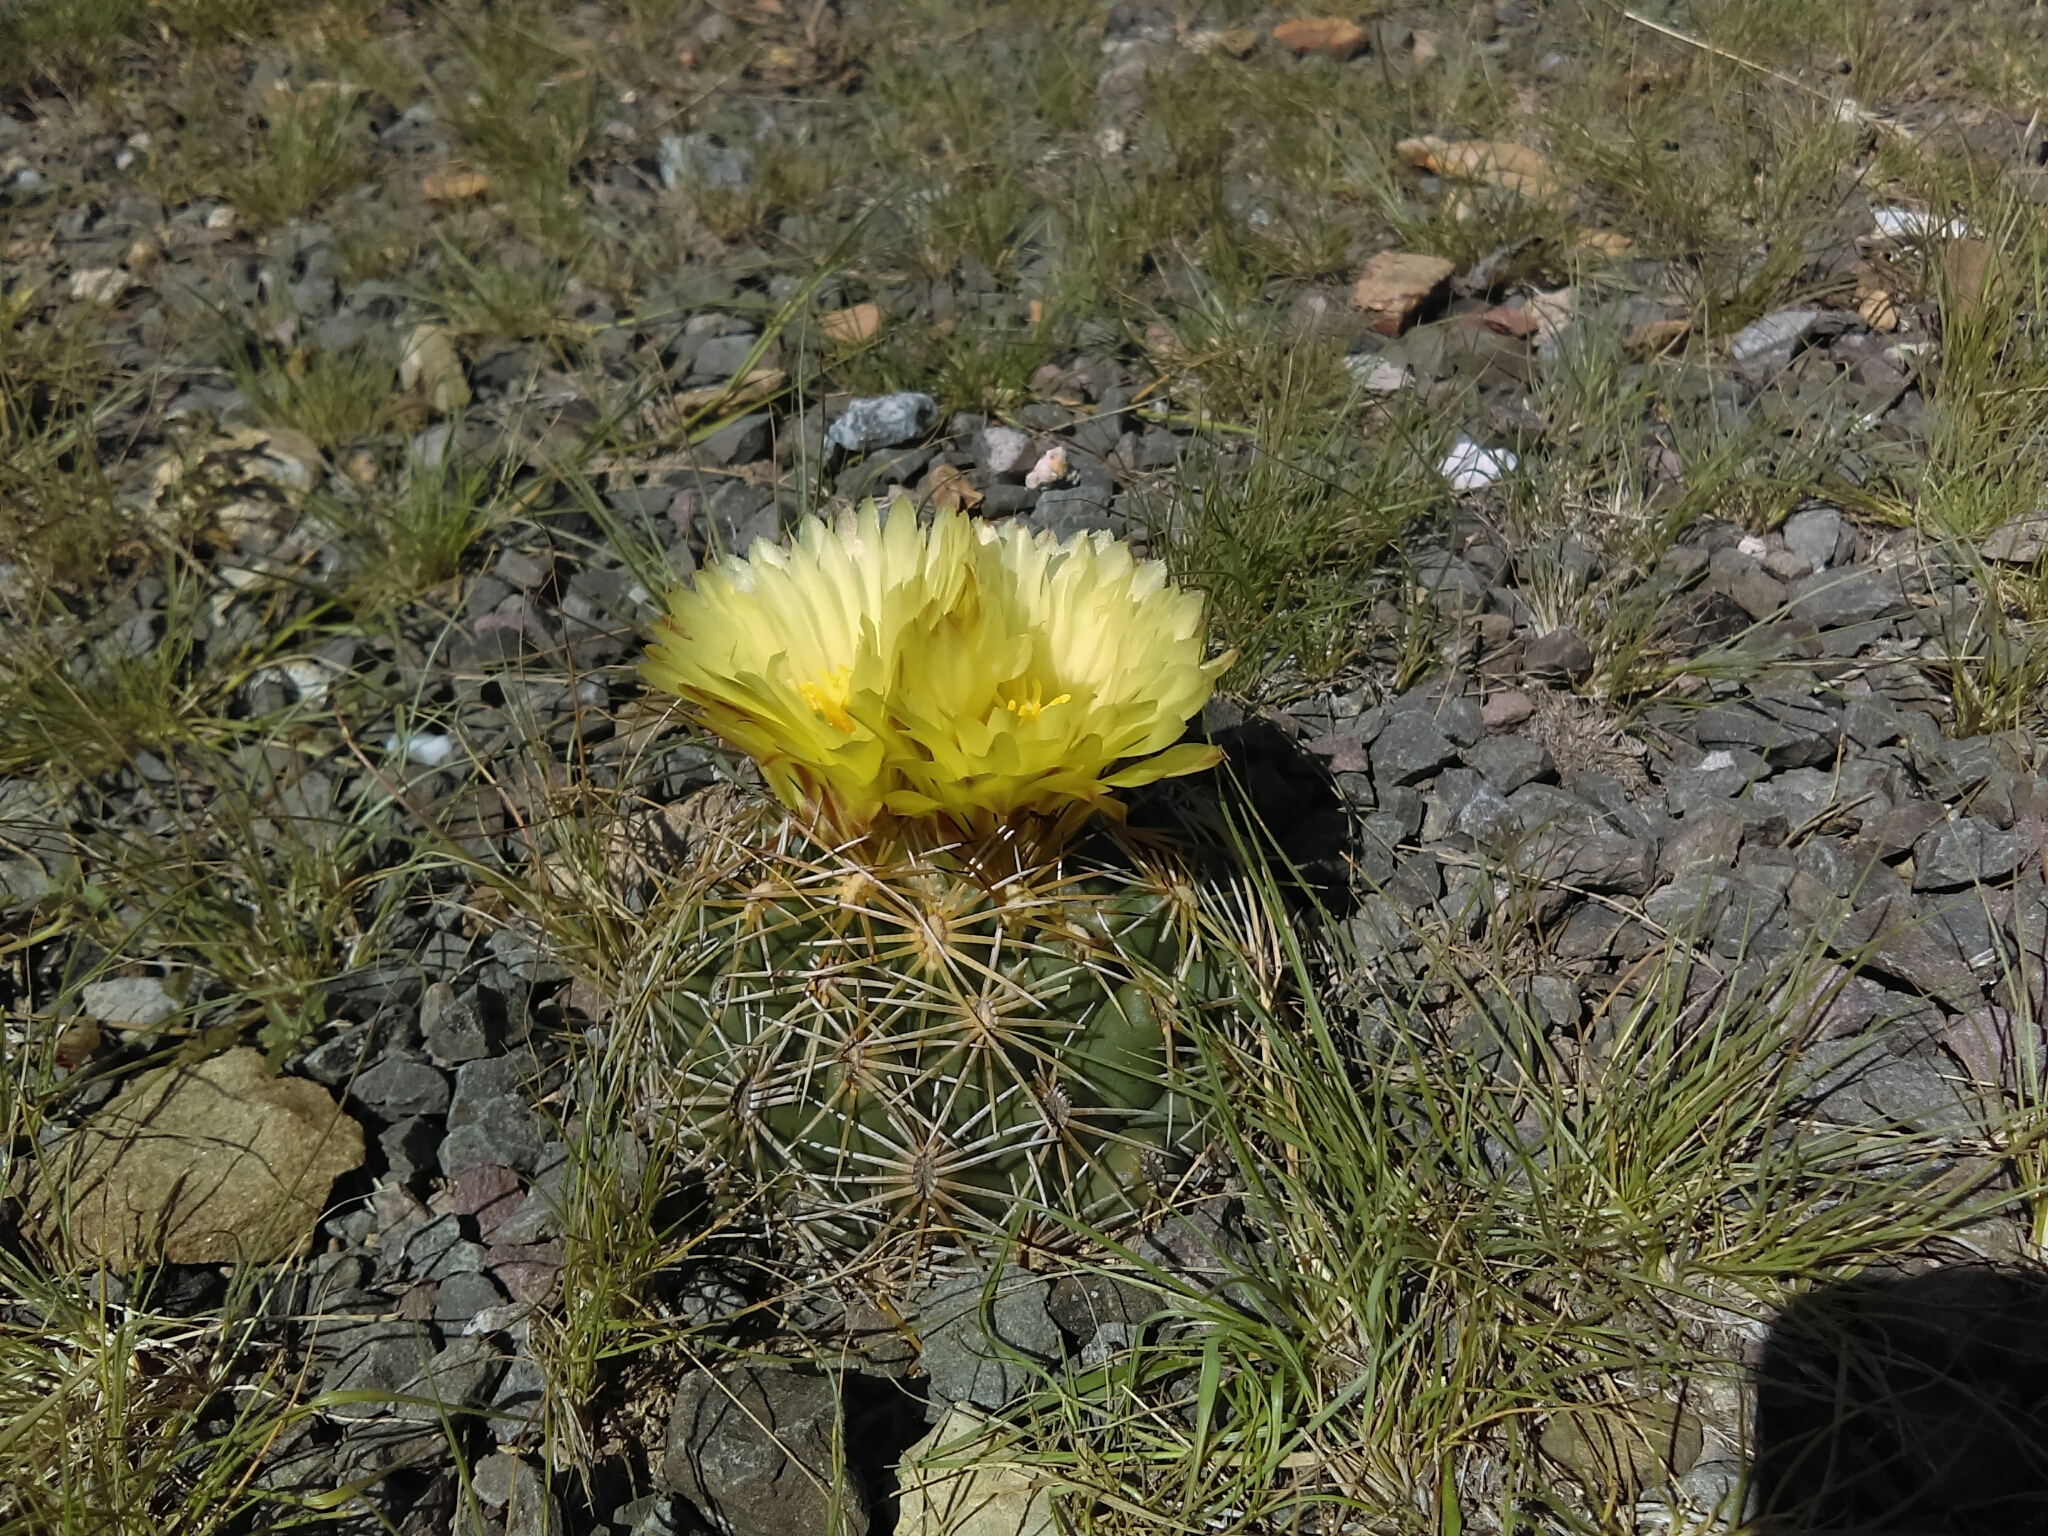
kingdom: Plantae
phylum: Tracheophyta
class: Magnoliopsida
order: Caryophyllales
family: Cactaceae
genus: Coryphantha
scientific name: Coryphantha cornifera
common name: Rhinoceros cactus
